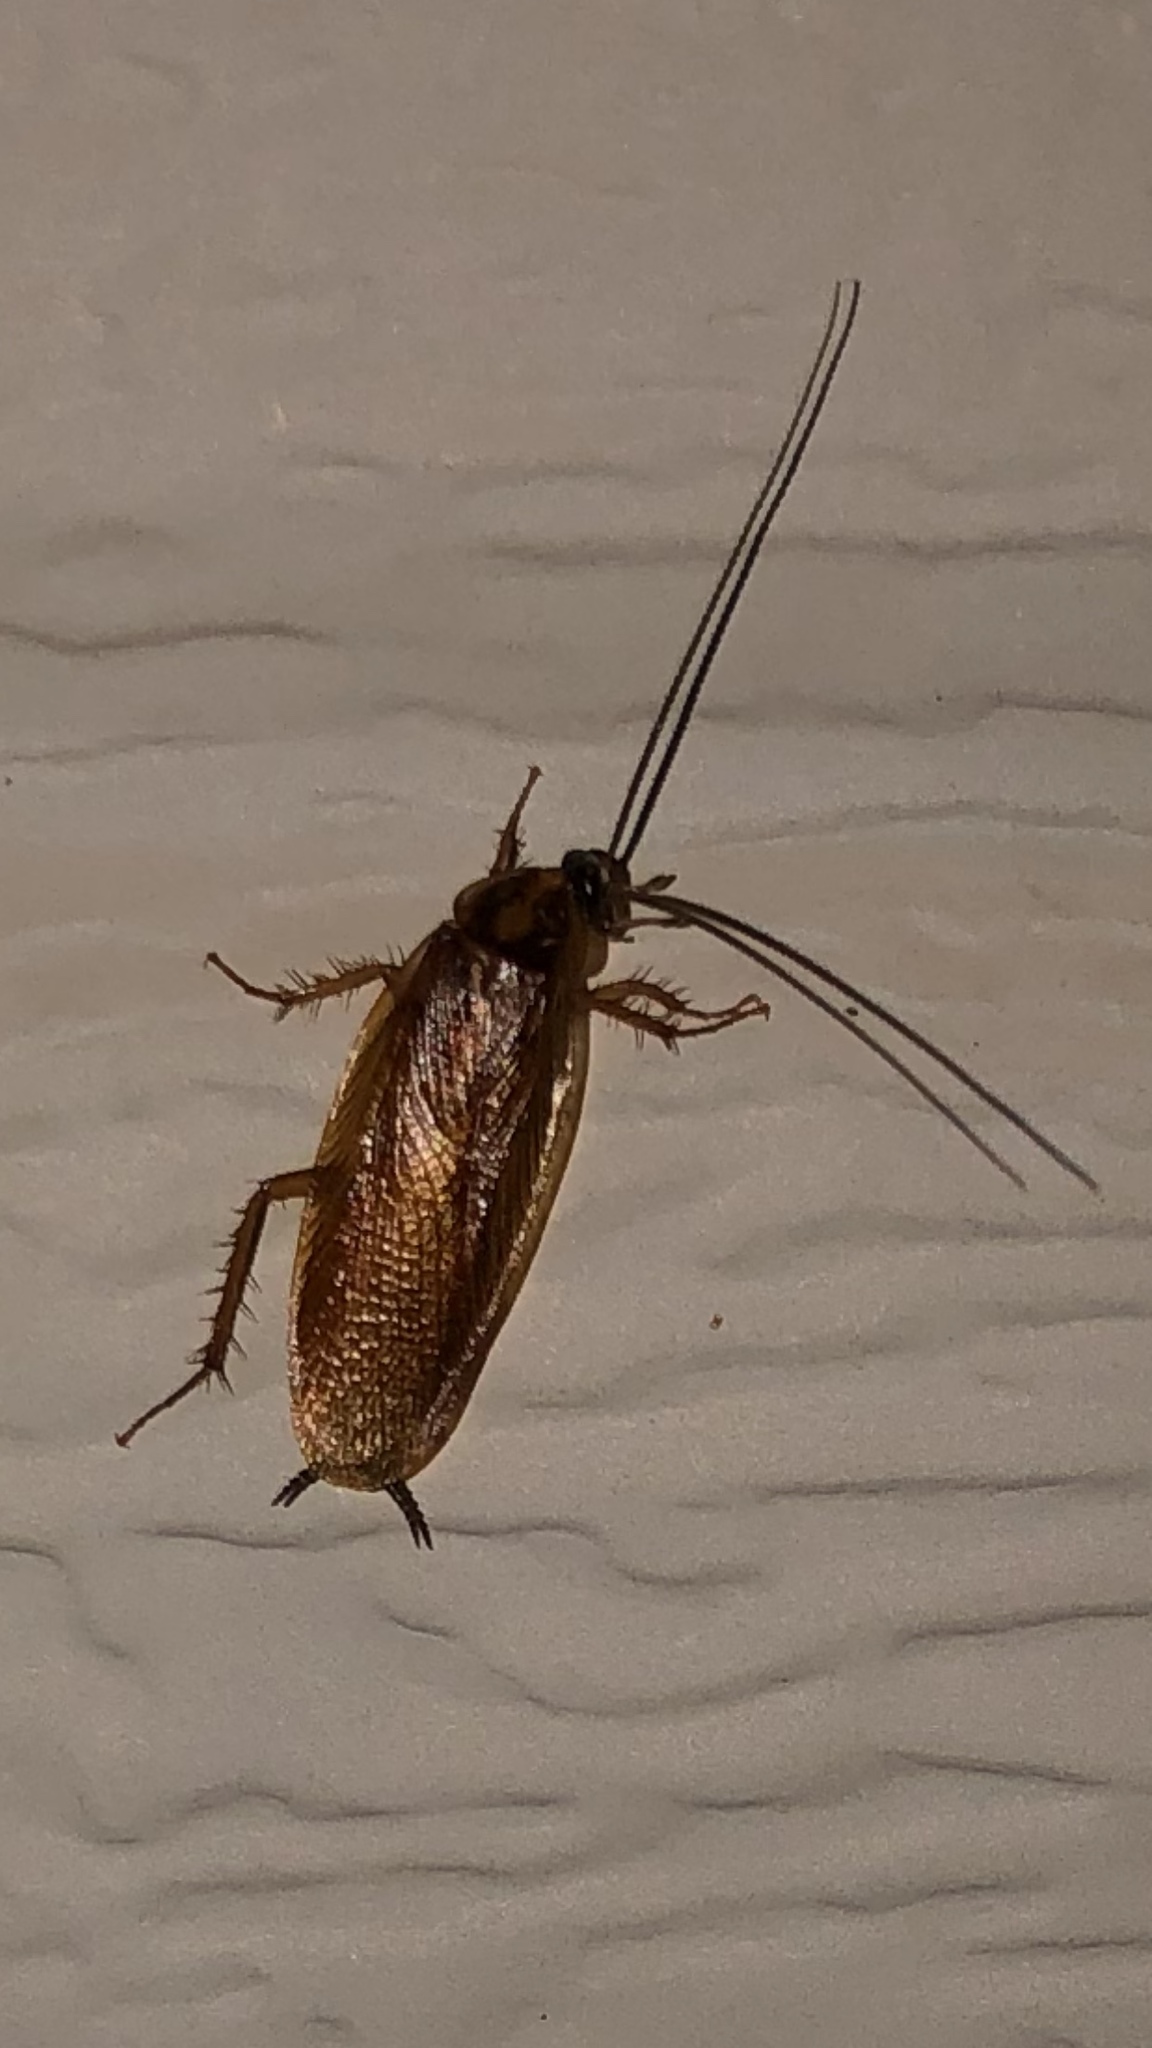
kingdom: Animalia
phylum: Arthropoda
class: Insecta
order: Blattodea
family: Ectobiidae
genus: Ischnoptera
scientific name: Ischnoptera bilunata
